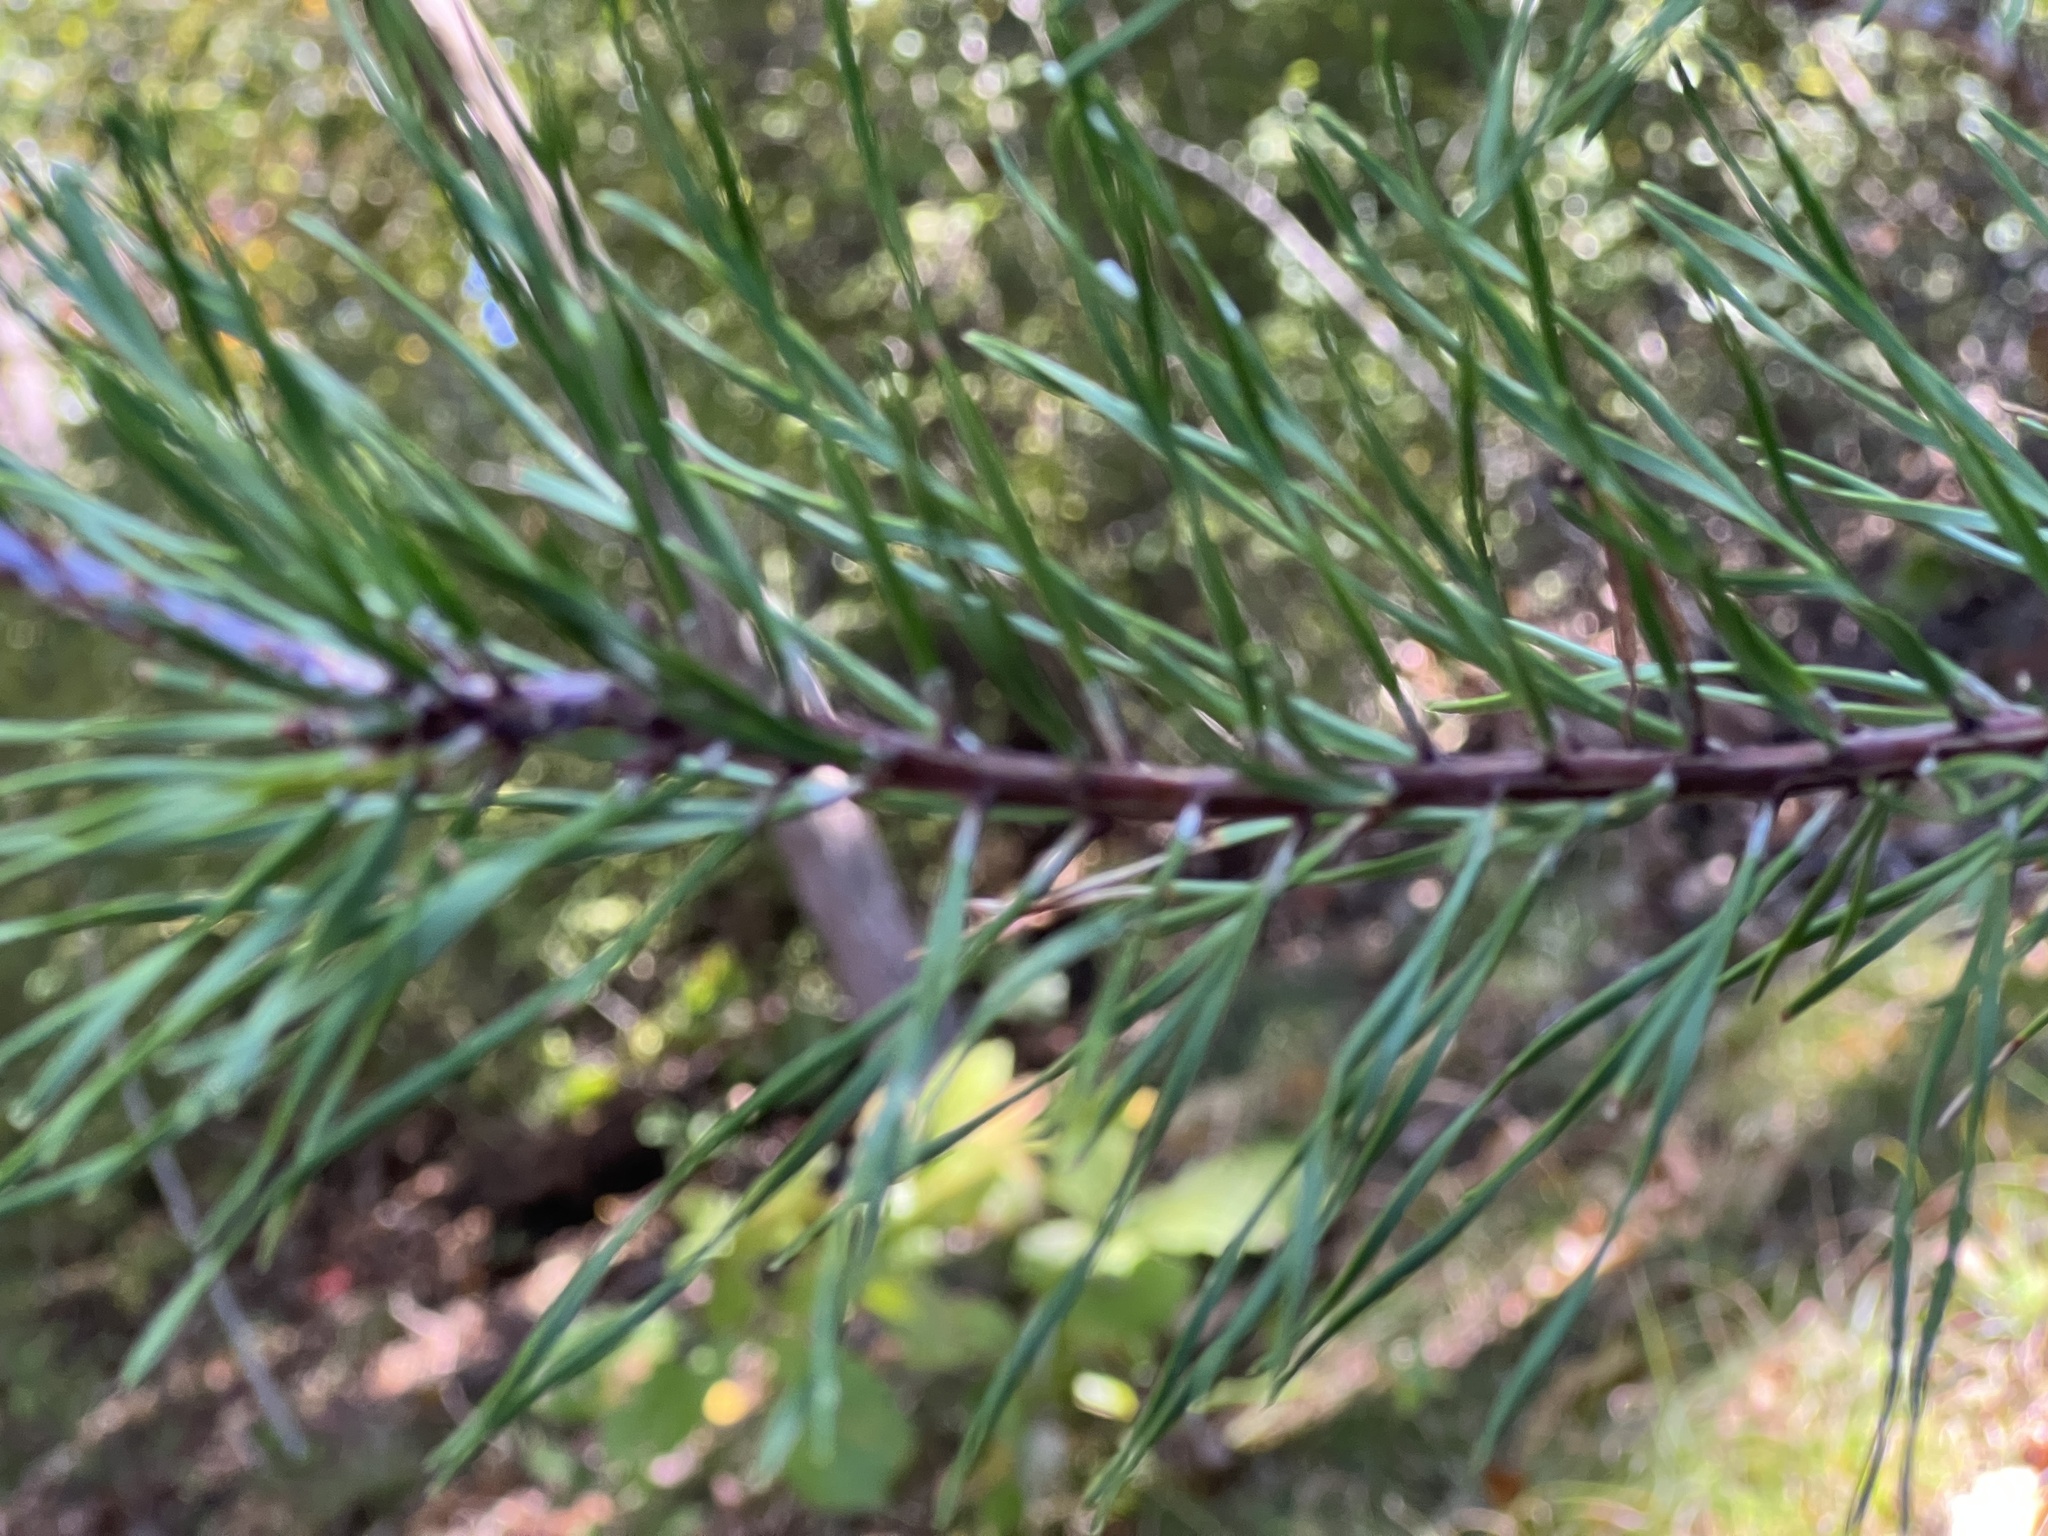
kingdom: Plantae
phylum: Tracheophyta
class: Pinopsida
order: Pinales
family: Pinaceae
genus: Pinus
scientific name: Pinus virginiana
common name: Scrub pine
